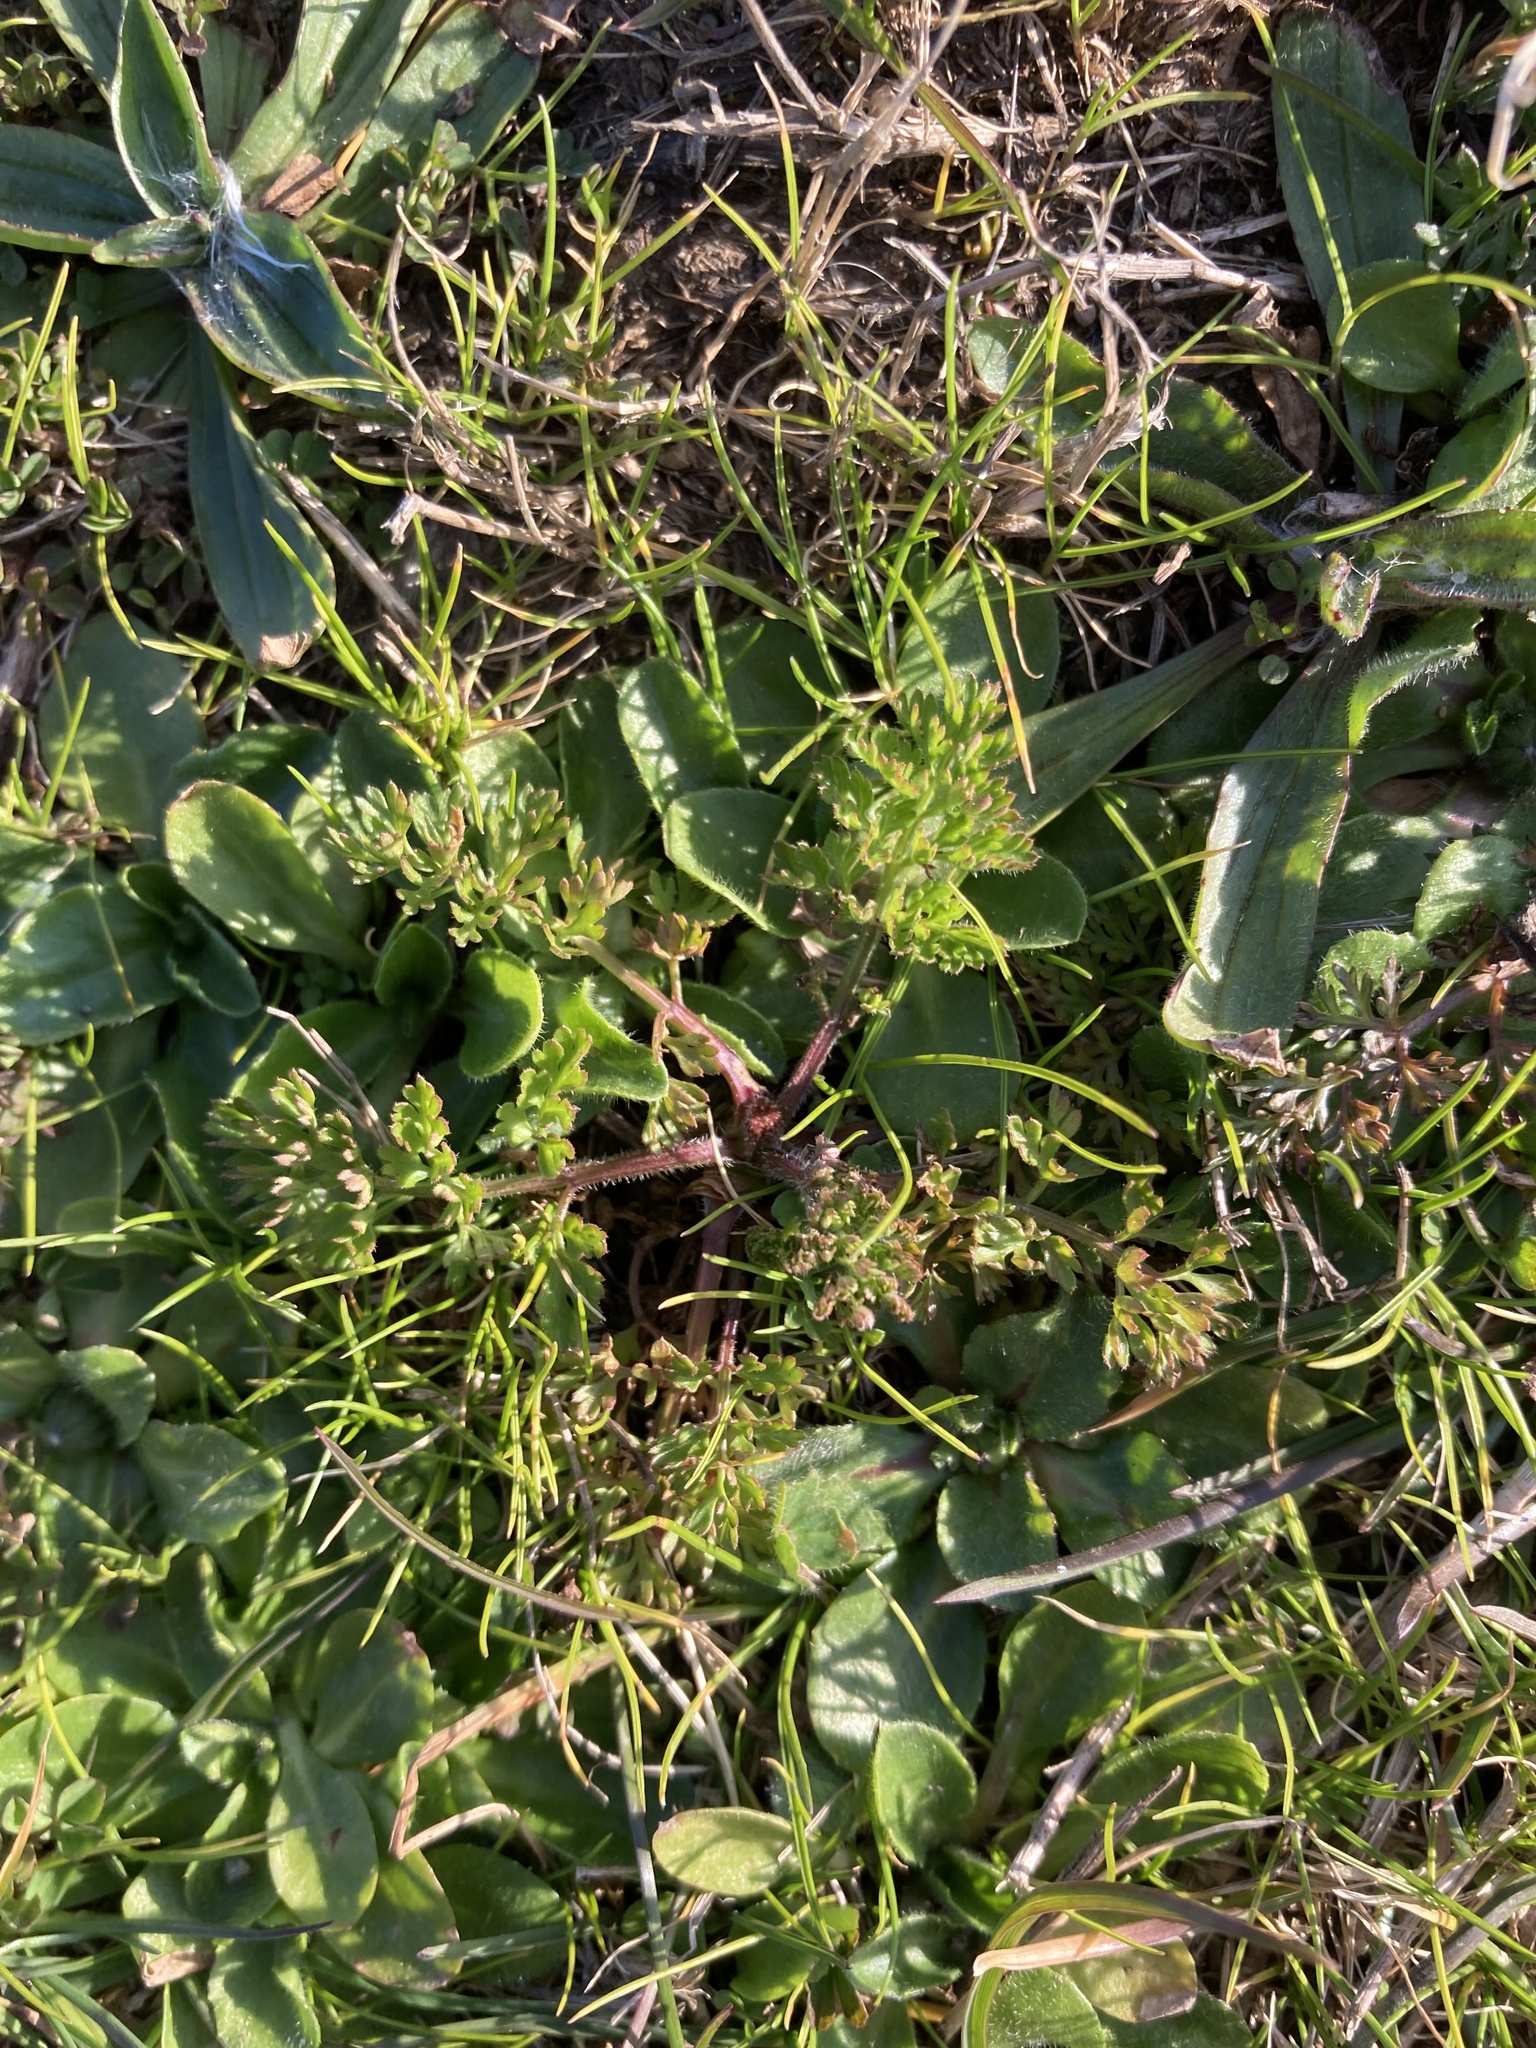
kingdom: Plantae
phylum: Tracheophyta
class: Magnoliopsida
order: Apiales
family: Apiaceae
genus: Daucus
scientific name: Daucus carota
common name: Wild carrot
